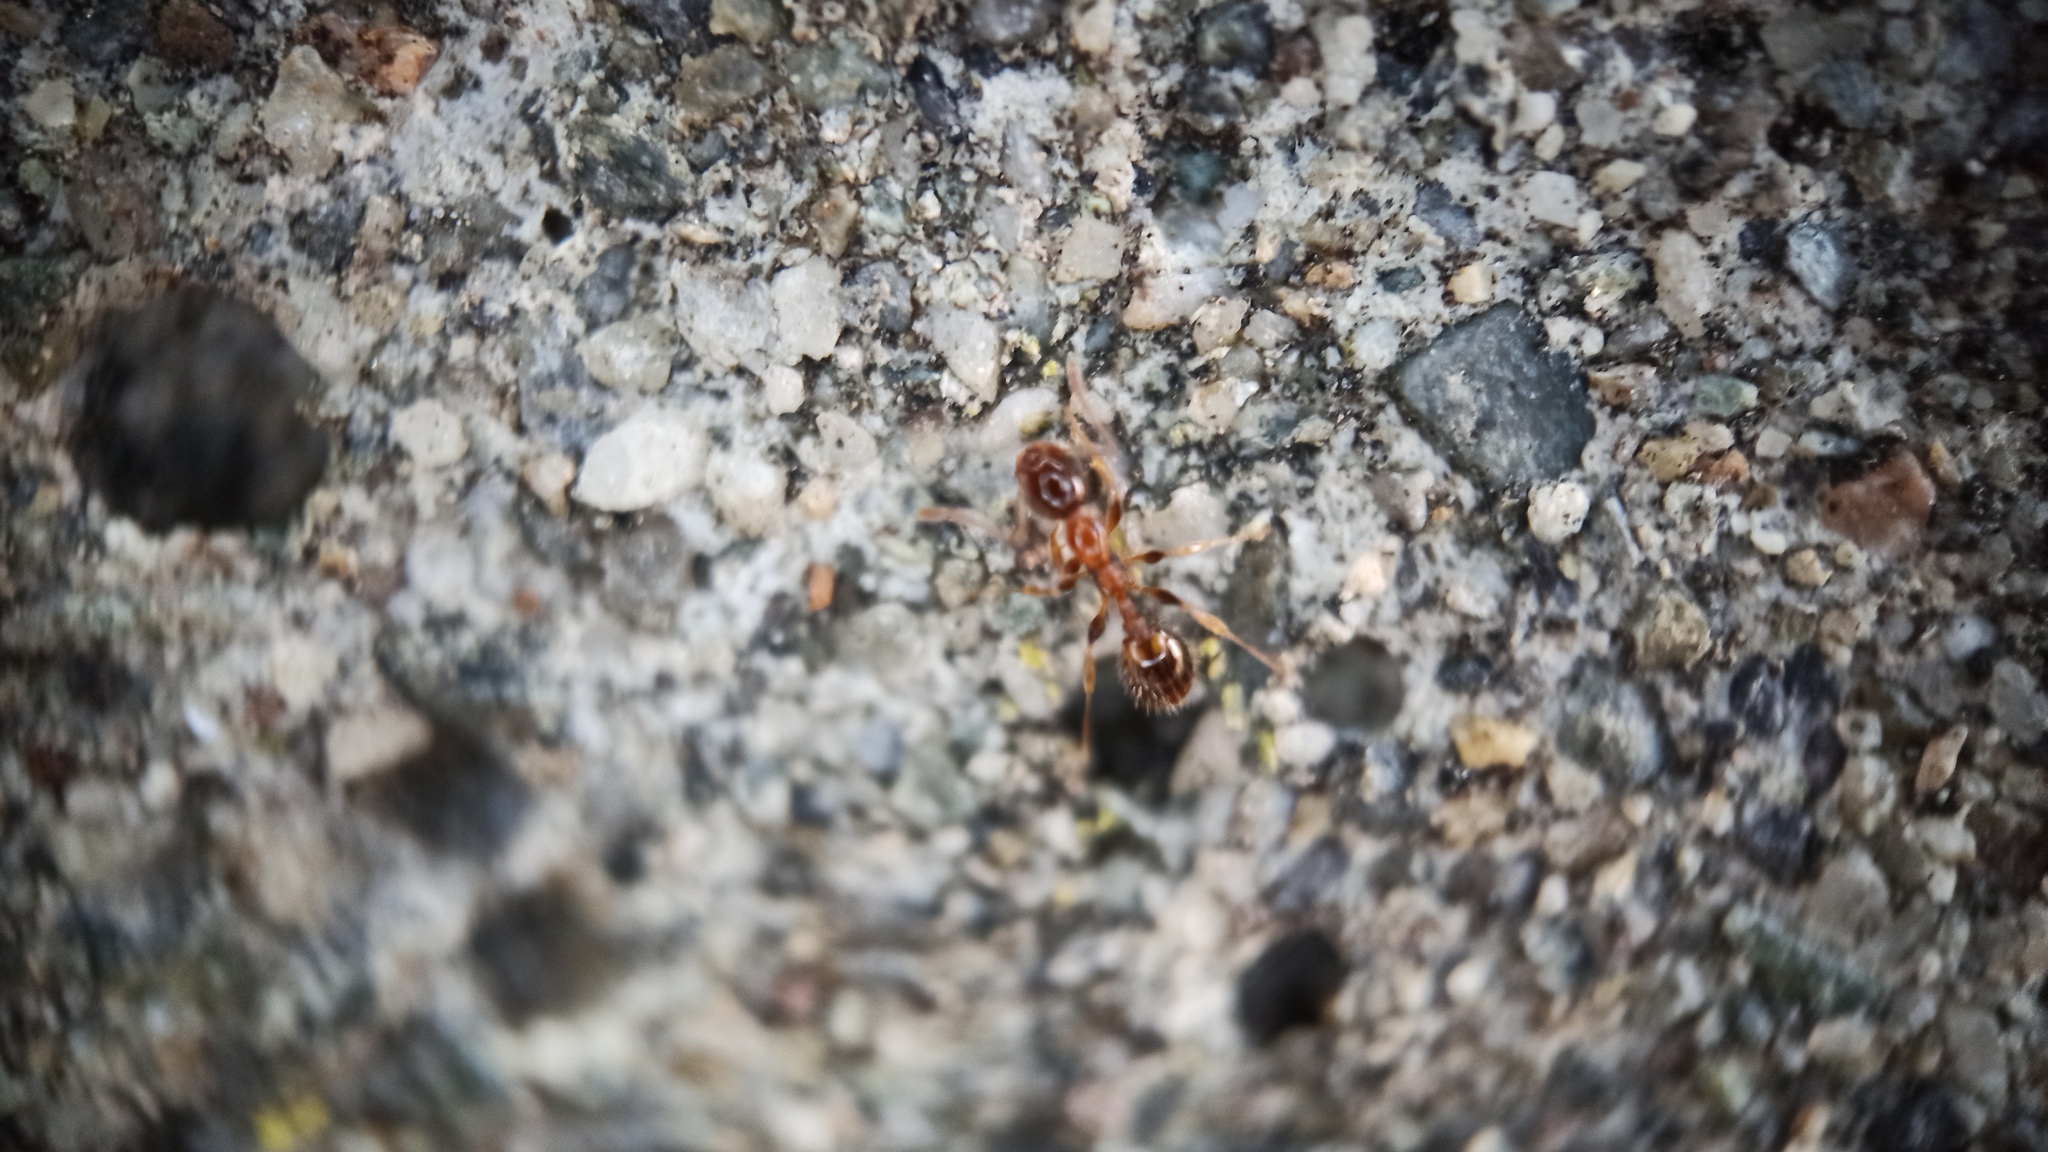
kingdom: Animalia
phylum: Arthropoda
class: Insecta
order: Hymenoptera
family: Formicidae
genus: Leptothorax
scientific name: Leptothorax recedens
